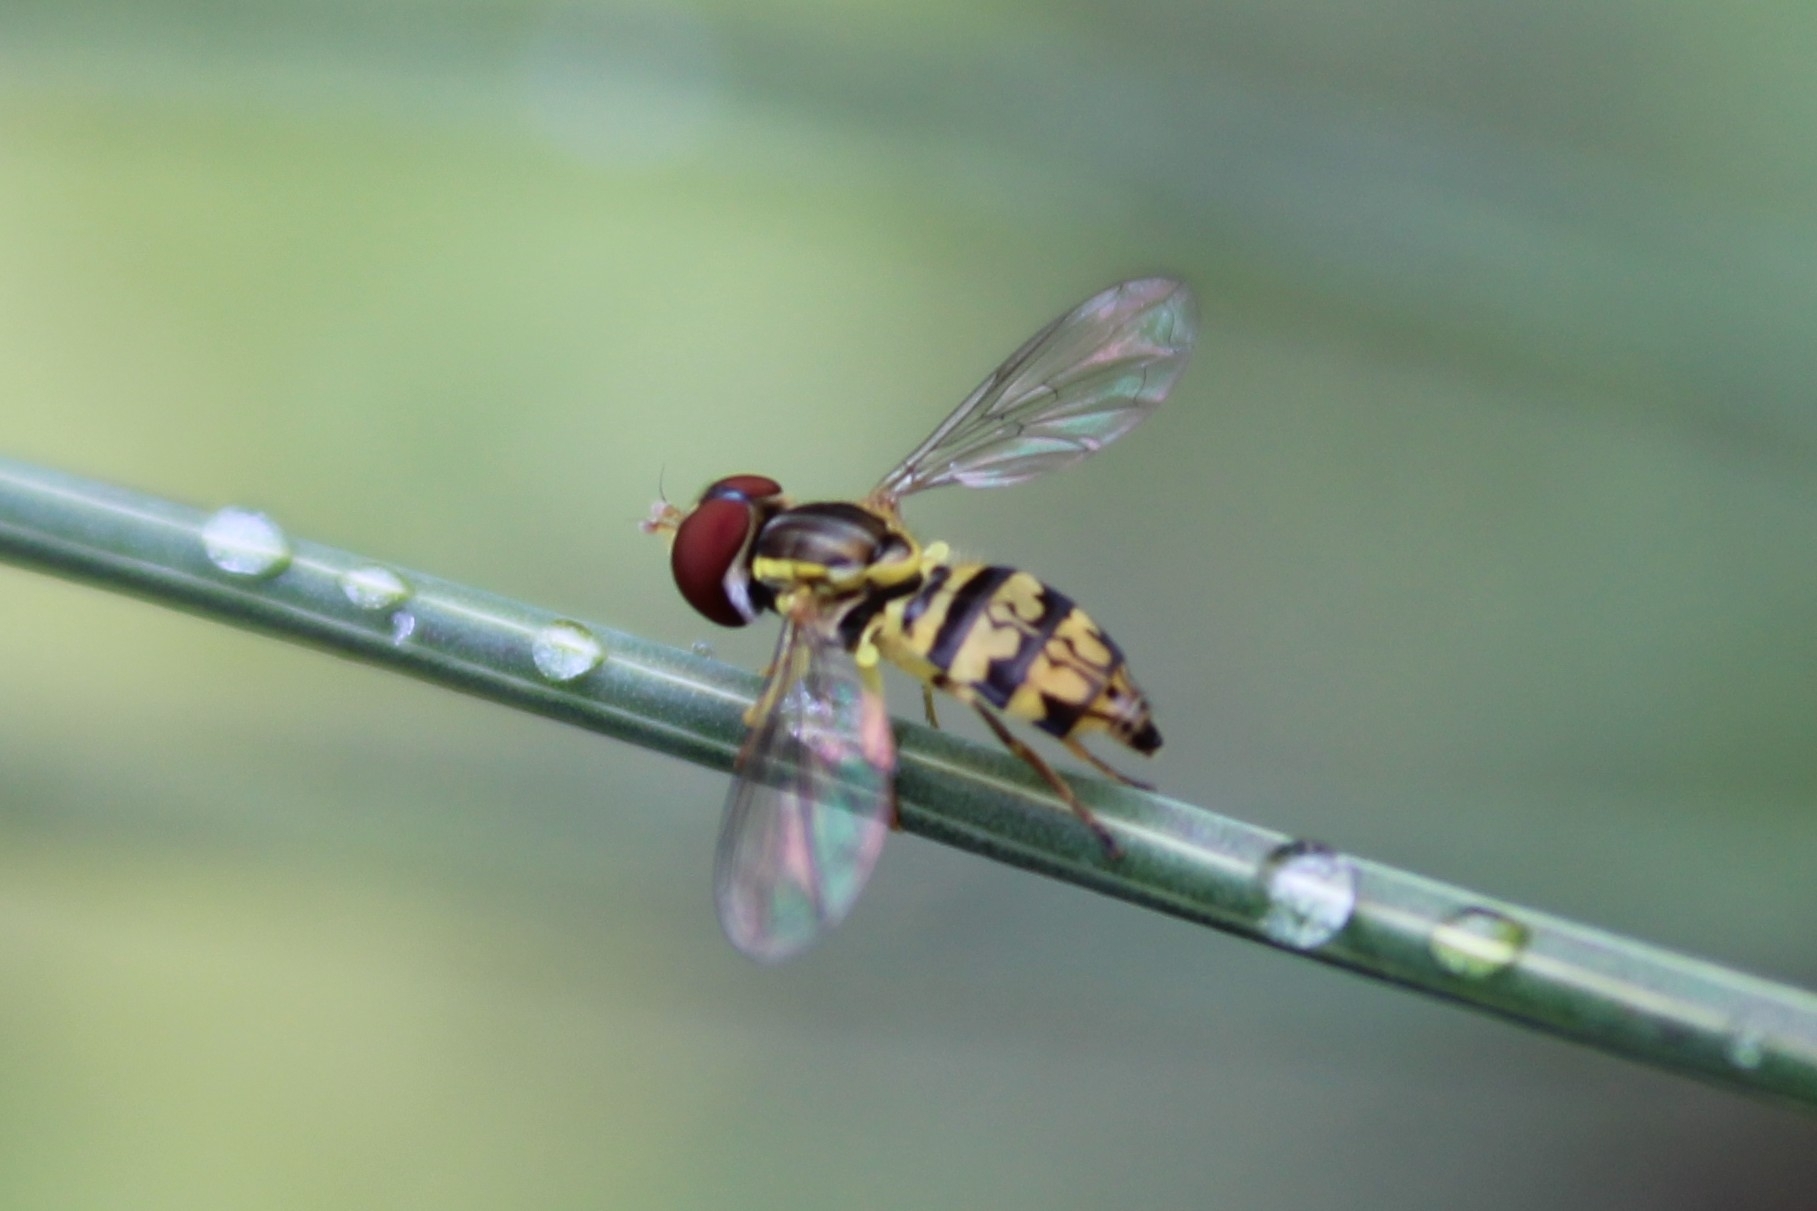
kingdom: Animalia
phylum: Arthropoda
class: Insecta
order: Diptera
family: Syrphidae
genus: Toxomerus
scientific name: Toxomerus geminatus
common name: Eastern calligrapher
